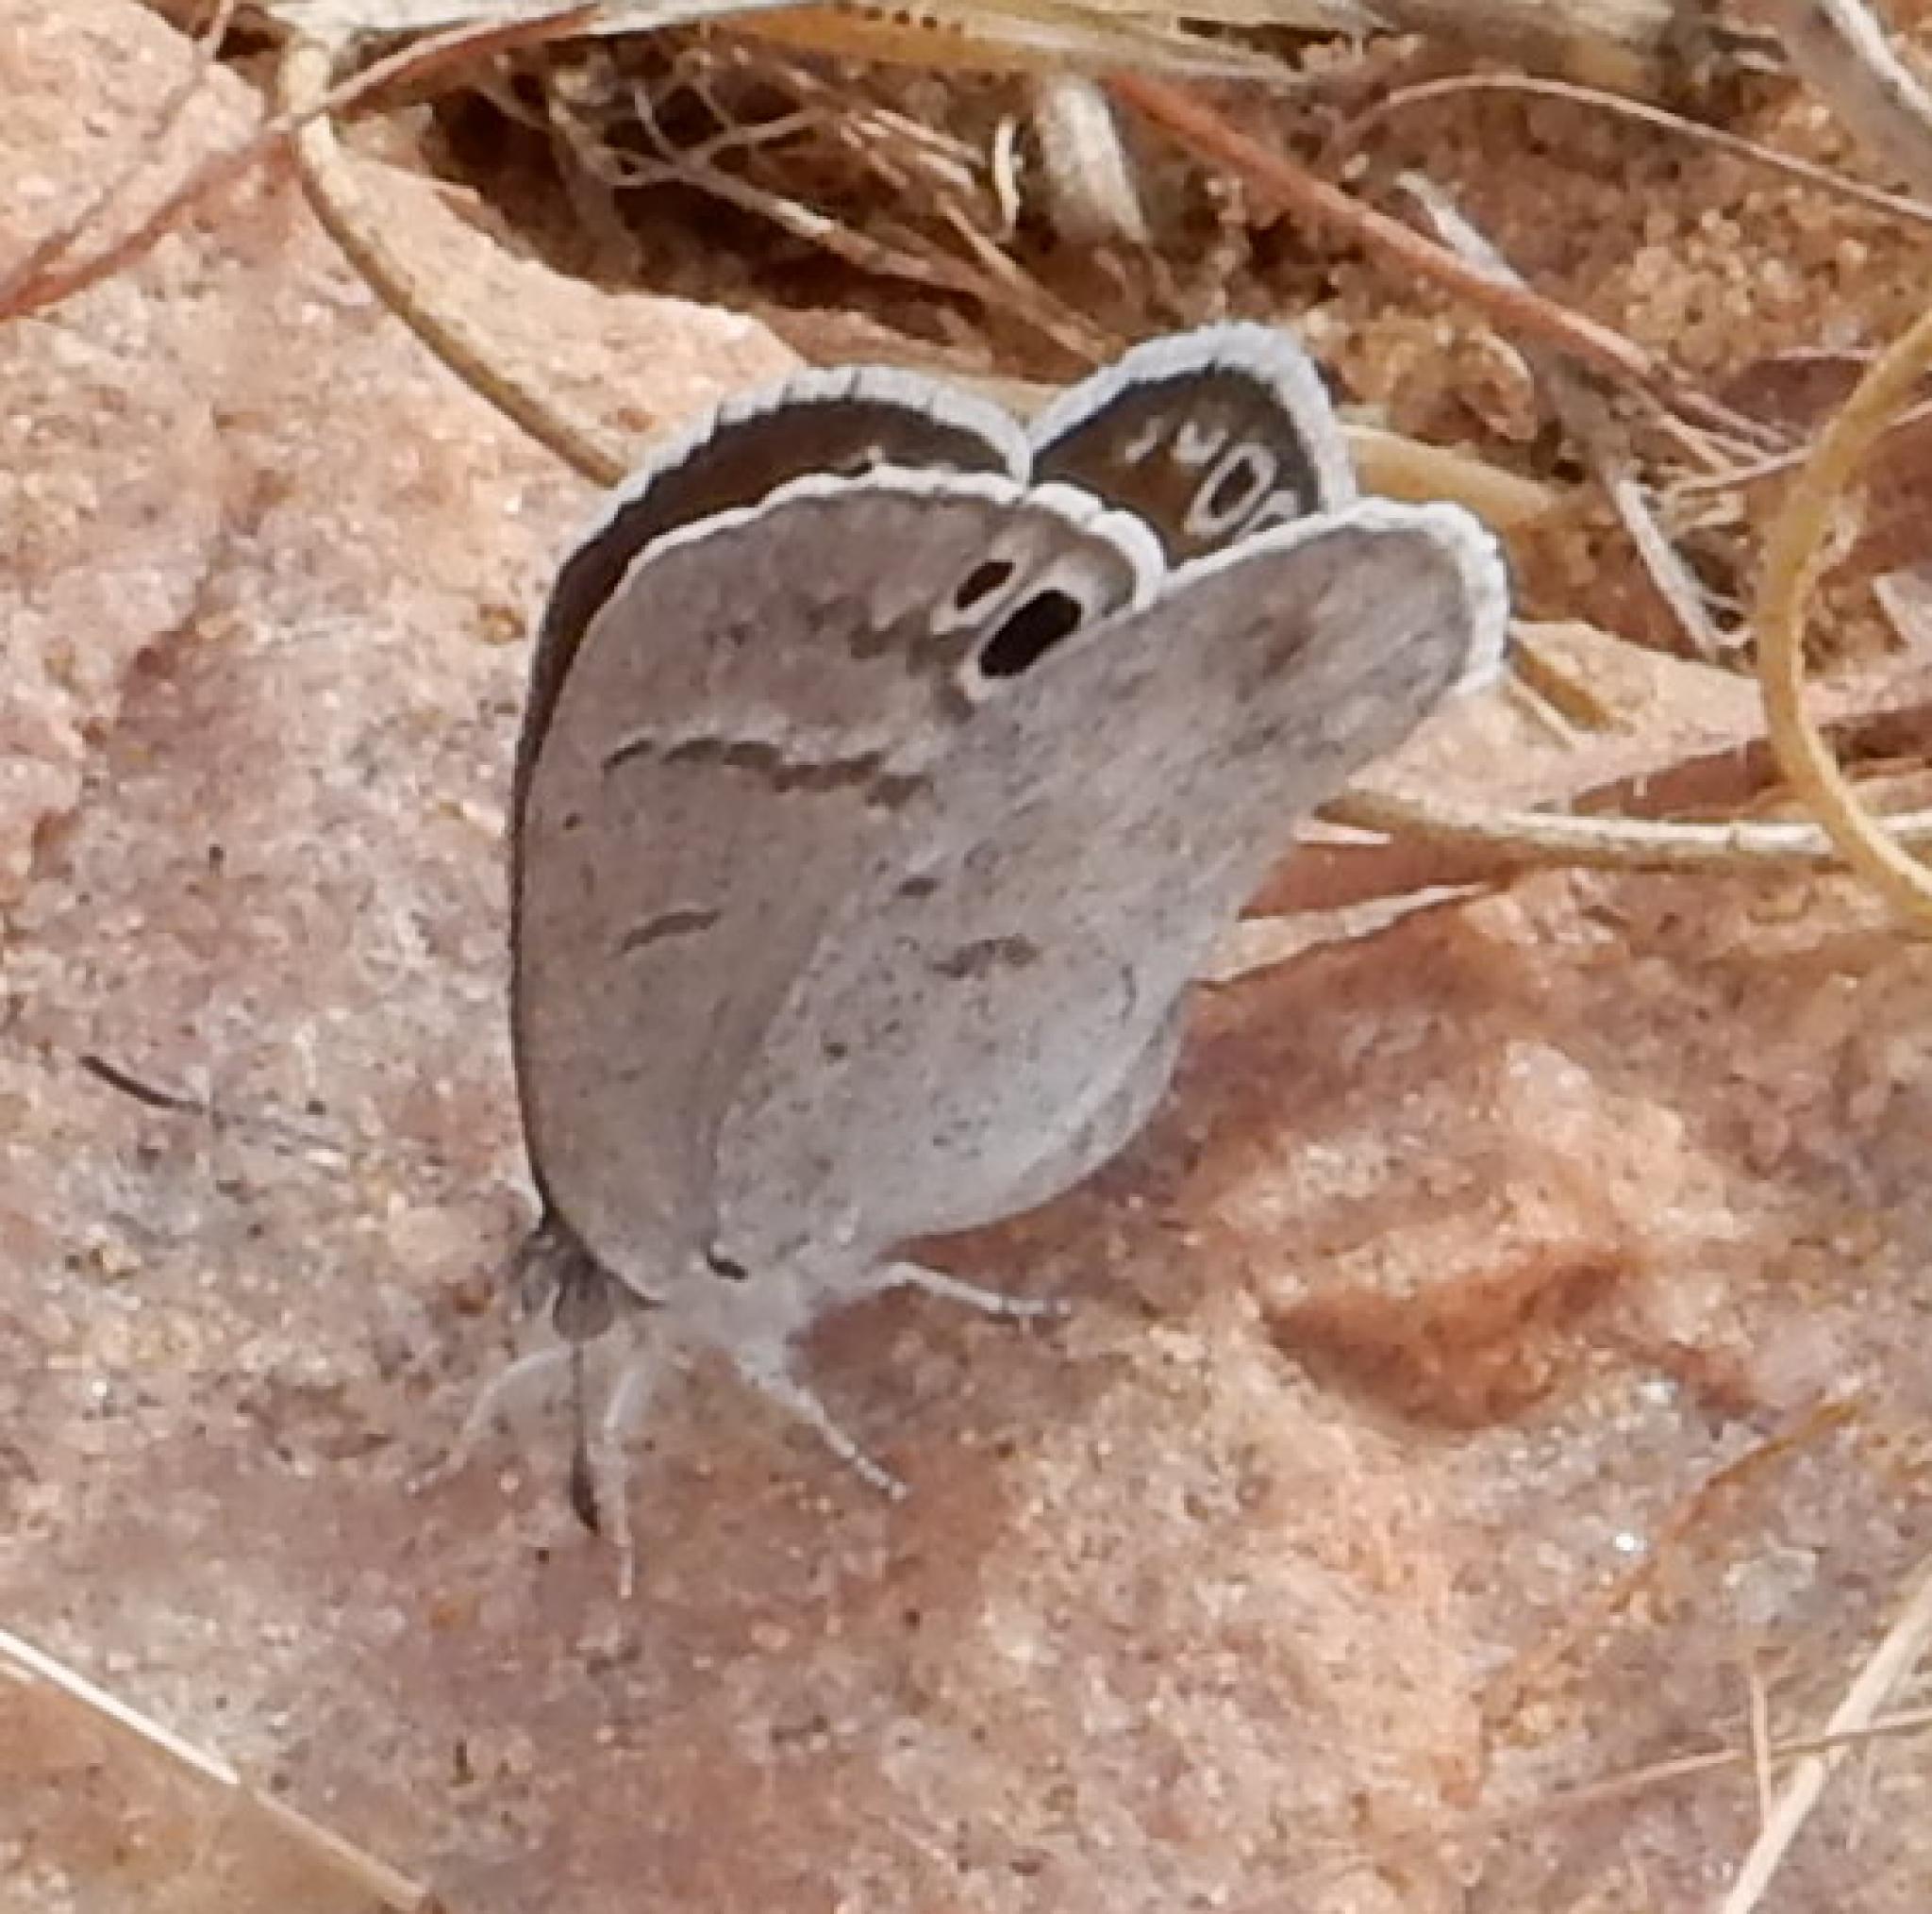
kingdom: Animalia
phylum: Arthropoda
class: Insecta
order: Lepidoptera
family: Lycaenidae
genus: Leptomyrina
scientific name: Leptomyrina henningi
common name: Henning's black-eye
